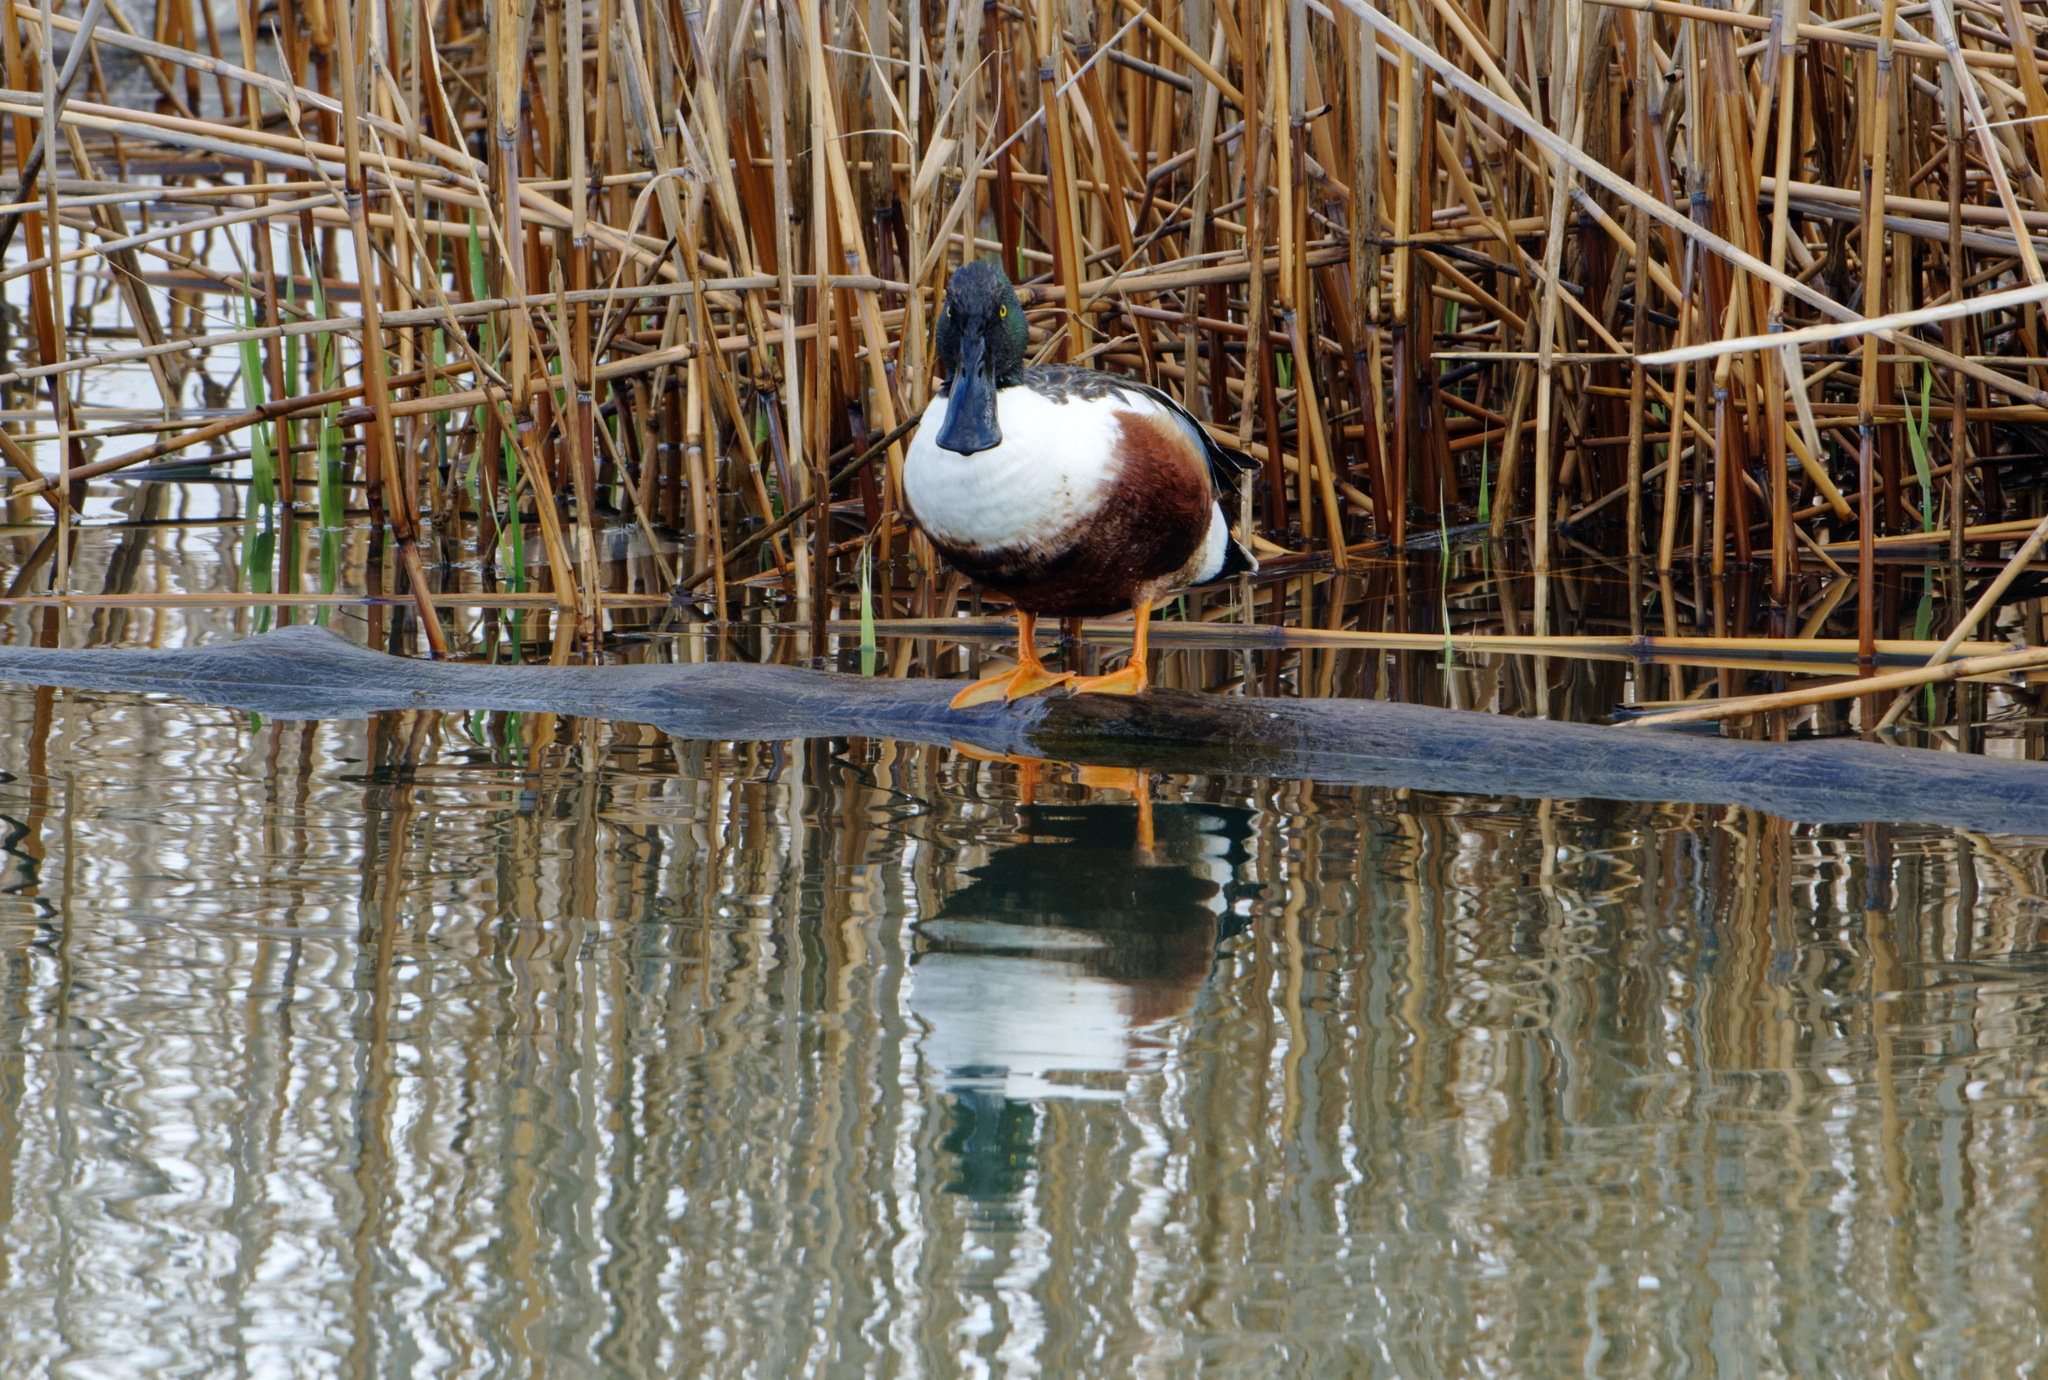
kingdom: Animalia
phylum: Chordata
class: Aves
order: Anseriformes
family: Anatidae
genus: Spatula
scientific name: Spatula clypeata
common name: Northern shoveler
